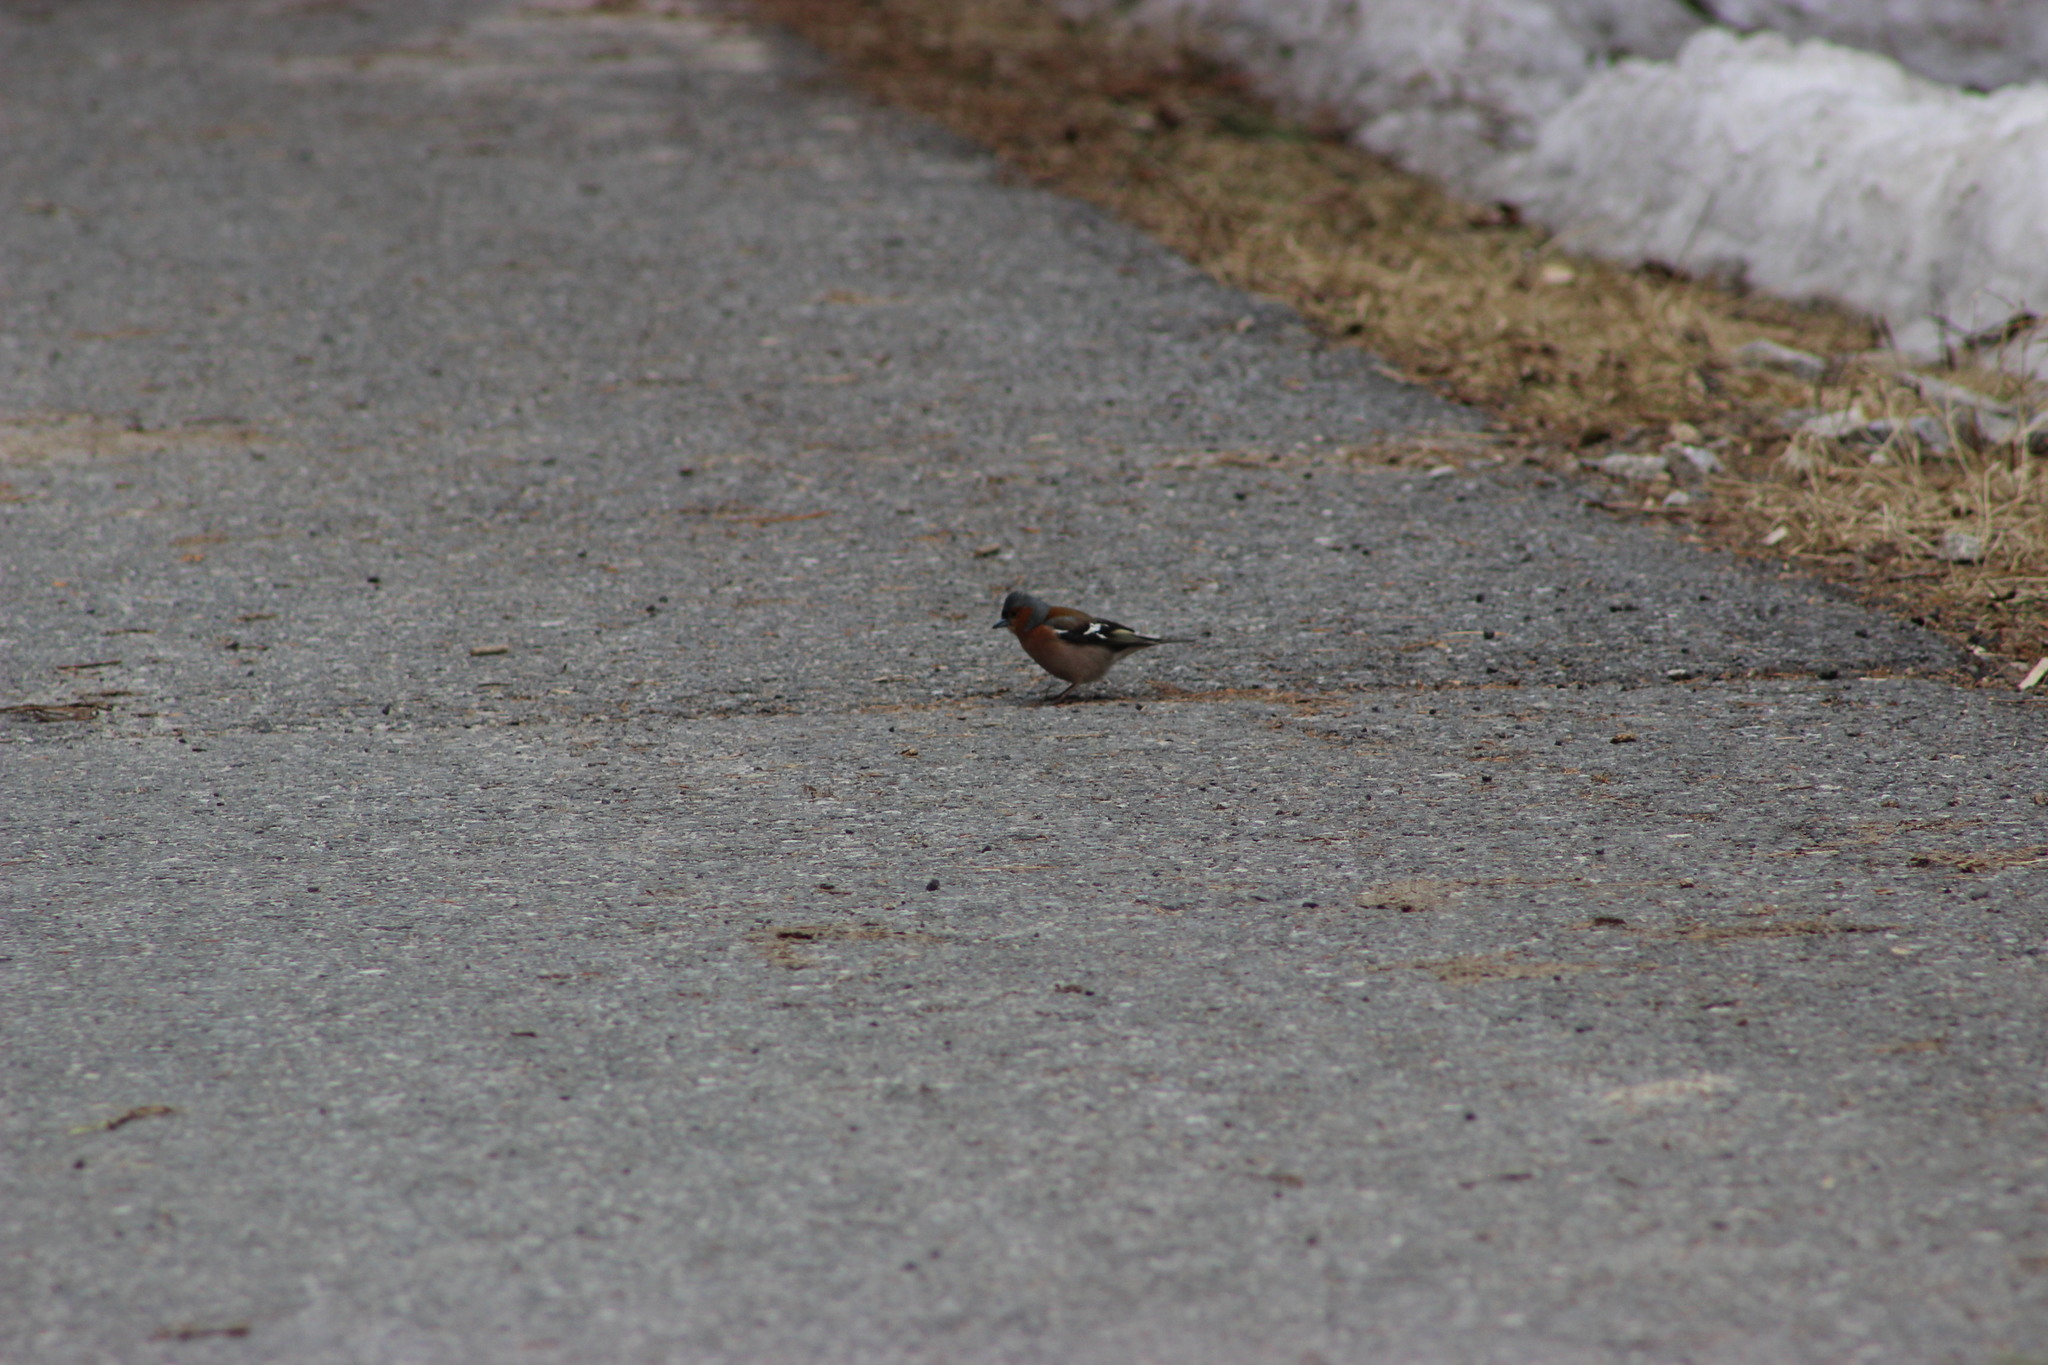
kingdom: Animalia
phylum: Chordata
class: Aves
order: Passeriformes
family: Fringillidae
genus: Fringilla
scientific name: Fringilla coelebs
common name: Common chaffinch
